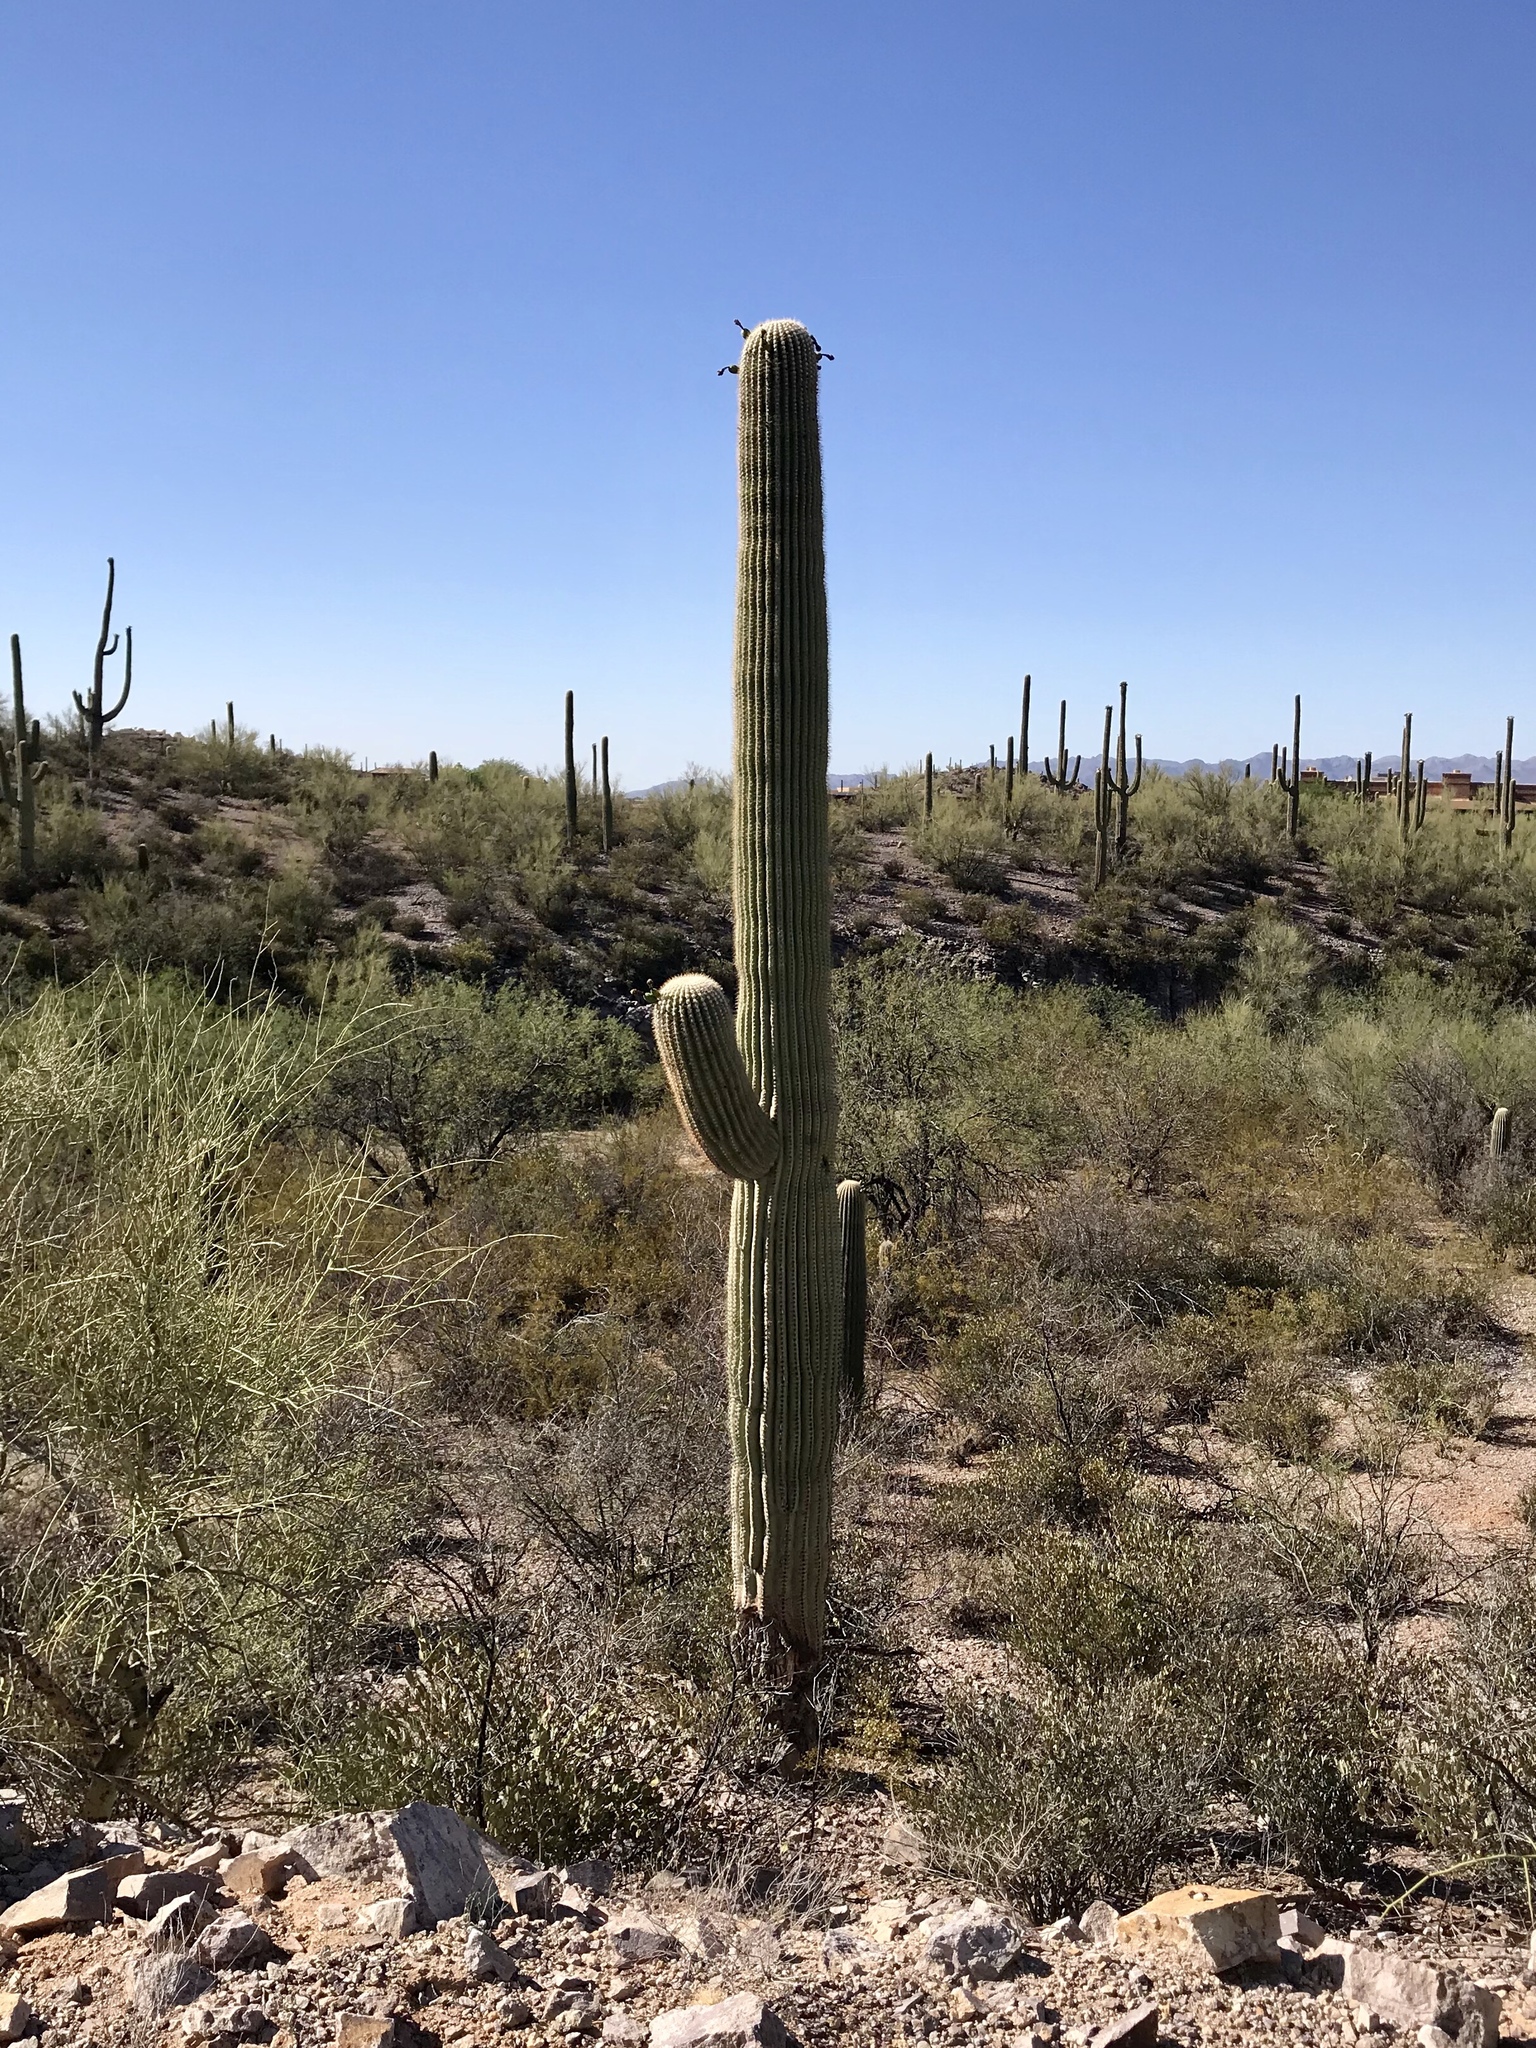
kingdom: Plantae
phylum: Tracheophyta
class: Magnoliopsida
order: Caryophyllales
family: Cactaceae
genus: Carnegiea
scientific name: Carnegiea gigantea
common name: Saguaro
